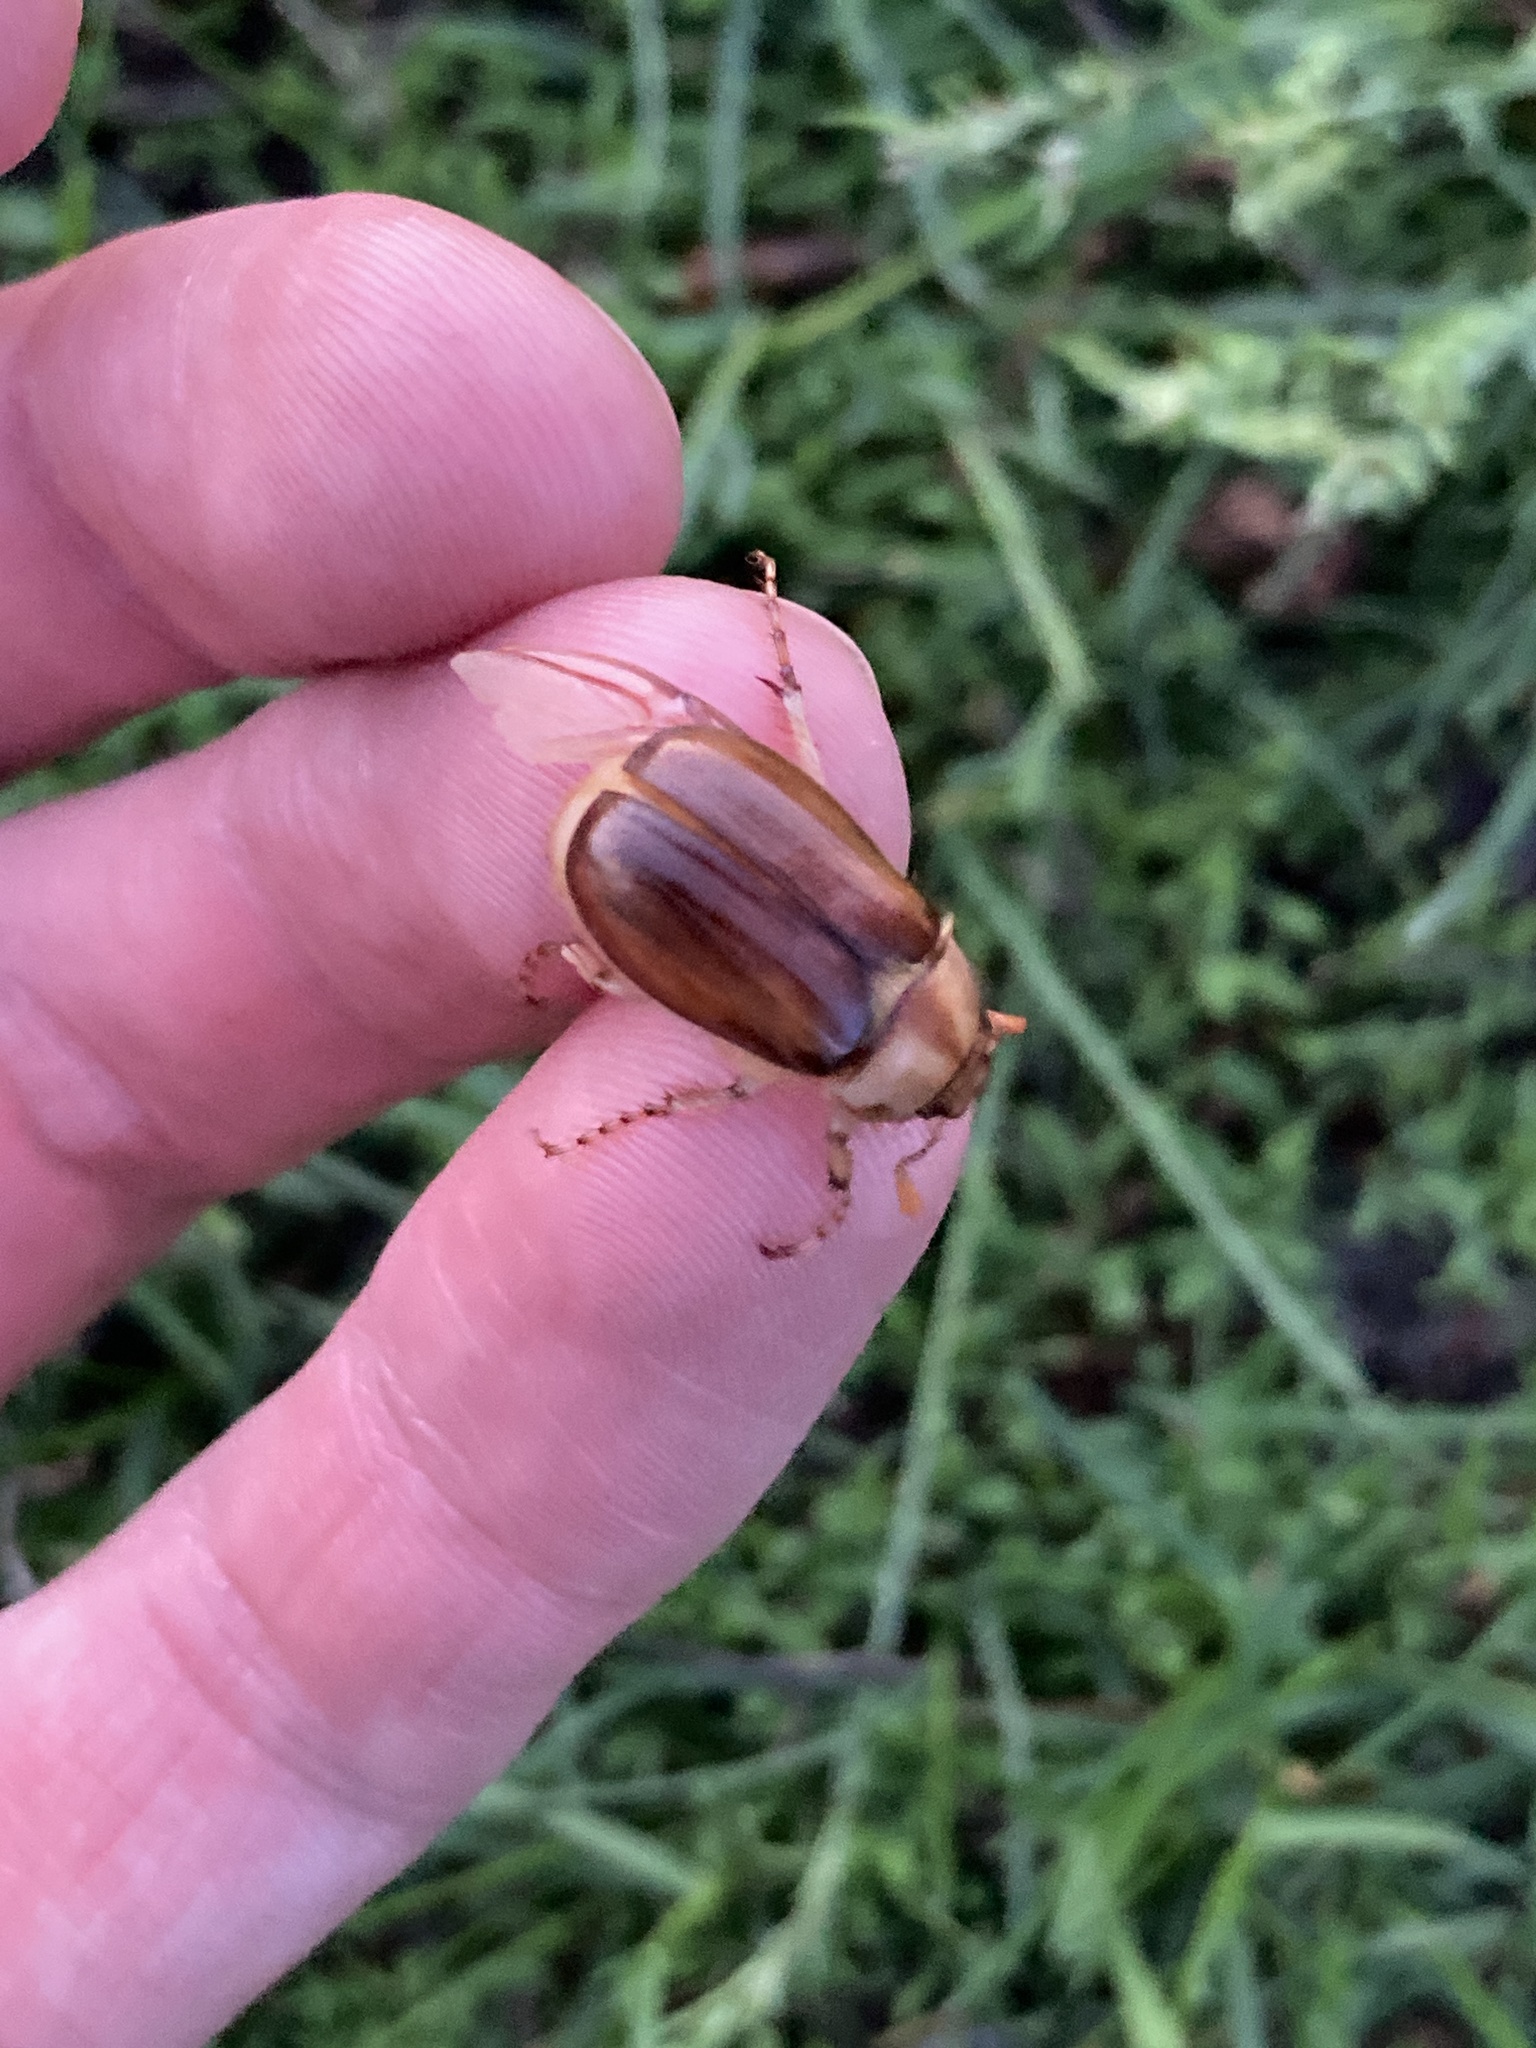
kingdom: Animalia
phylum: Arthropoda
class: Insecta
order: Coleoptera
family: Scarabaeidae
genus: Rhizotrogus
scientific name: Rhizotrogus aestivus
